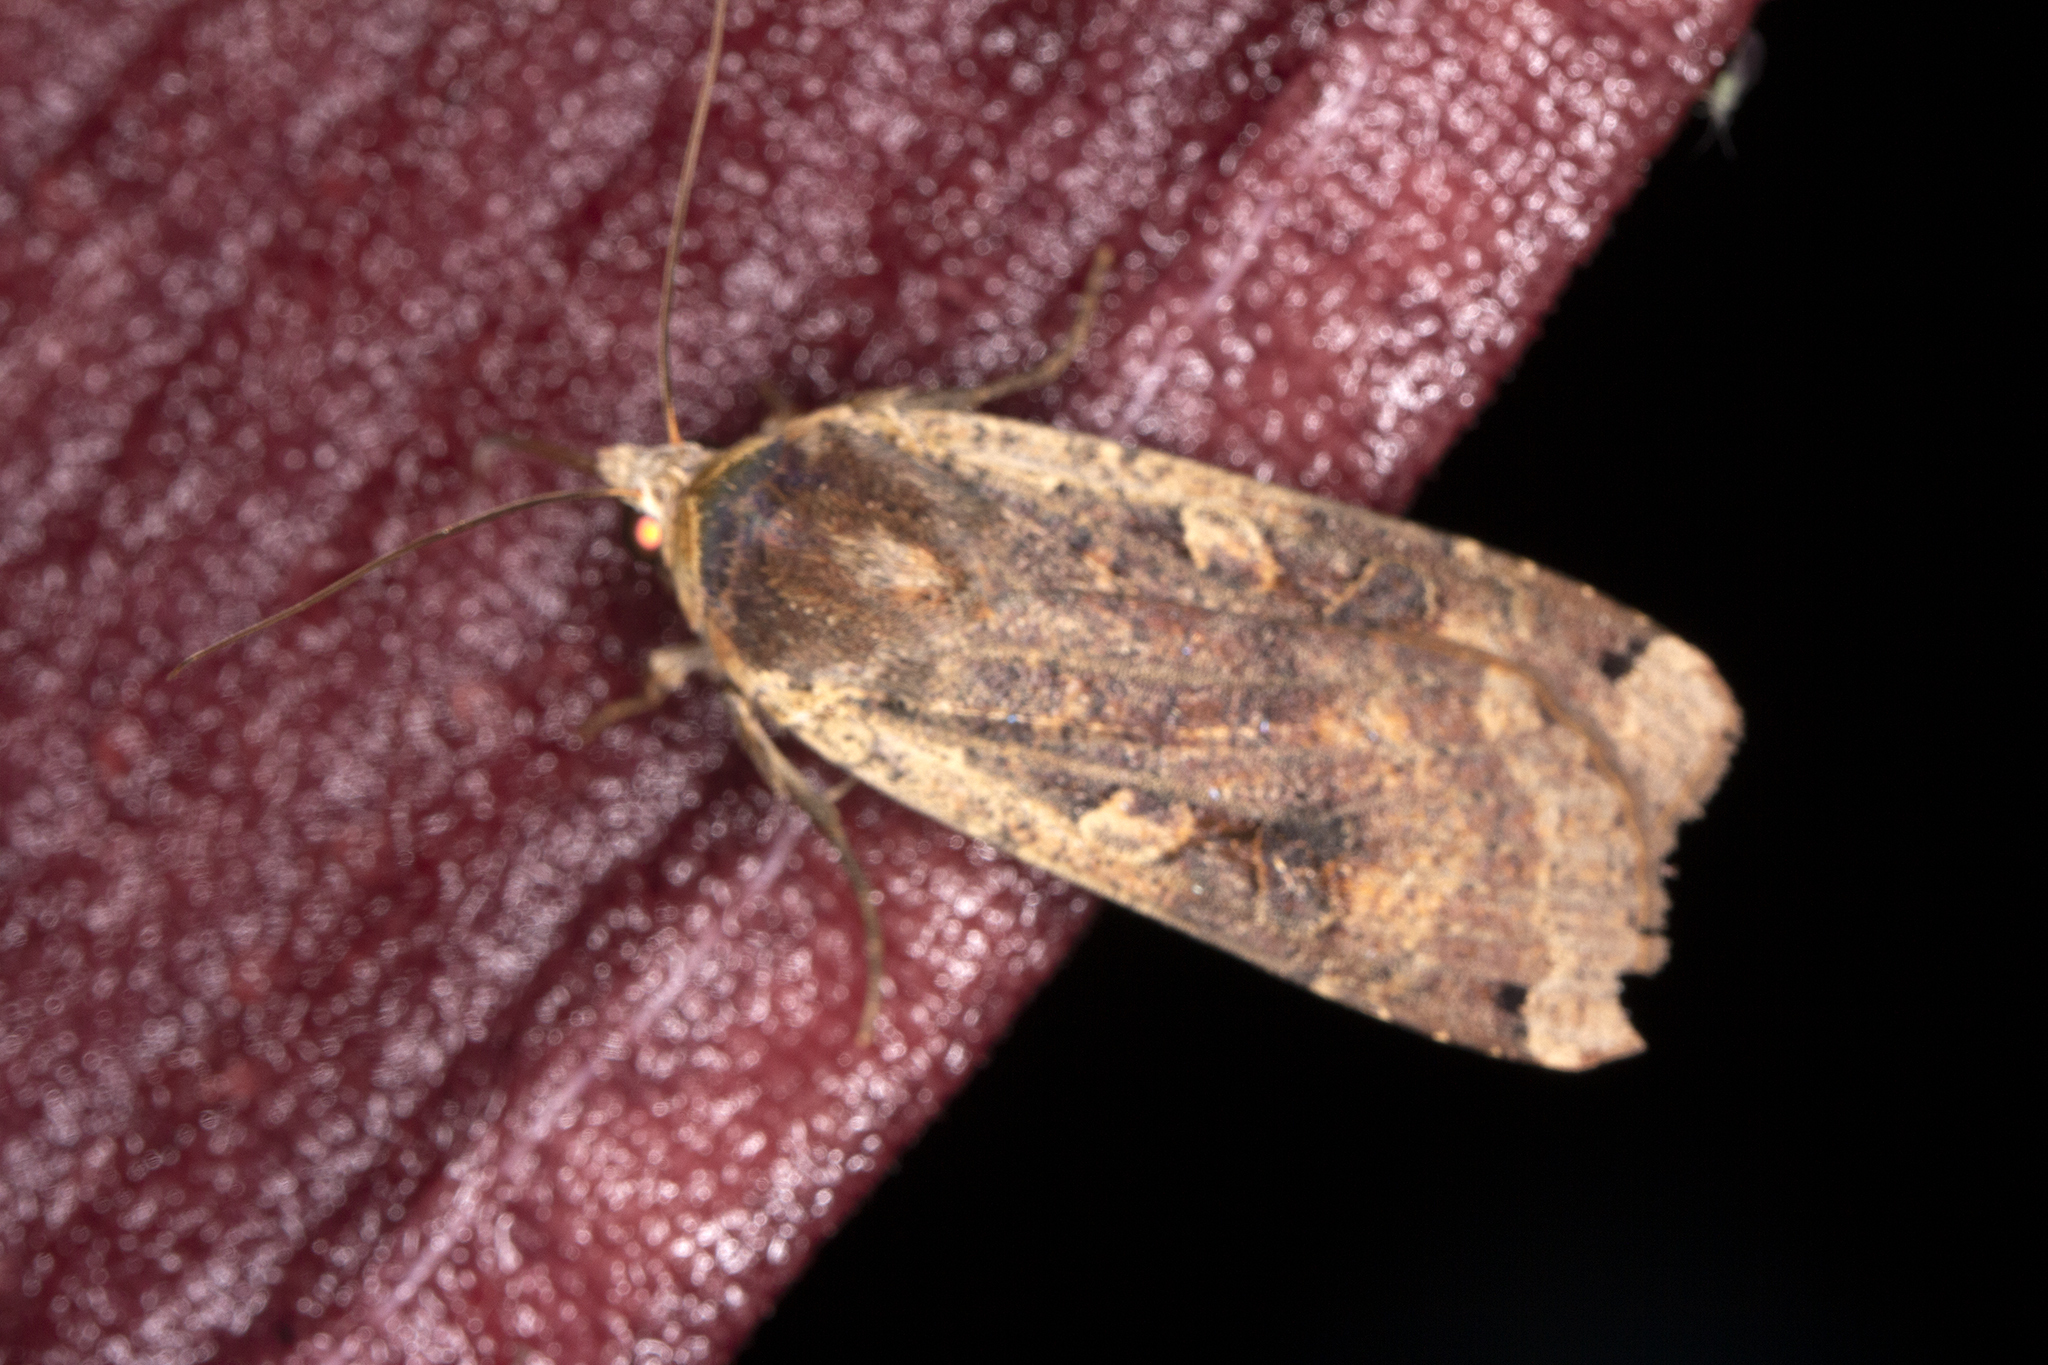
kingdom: Animalia
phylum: Arthropoda
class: Insecta
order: Lepidoptera
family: Noctuidae
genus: Noctua
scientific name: Noctua pronuba
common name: Large yellow underwing
